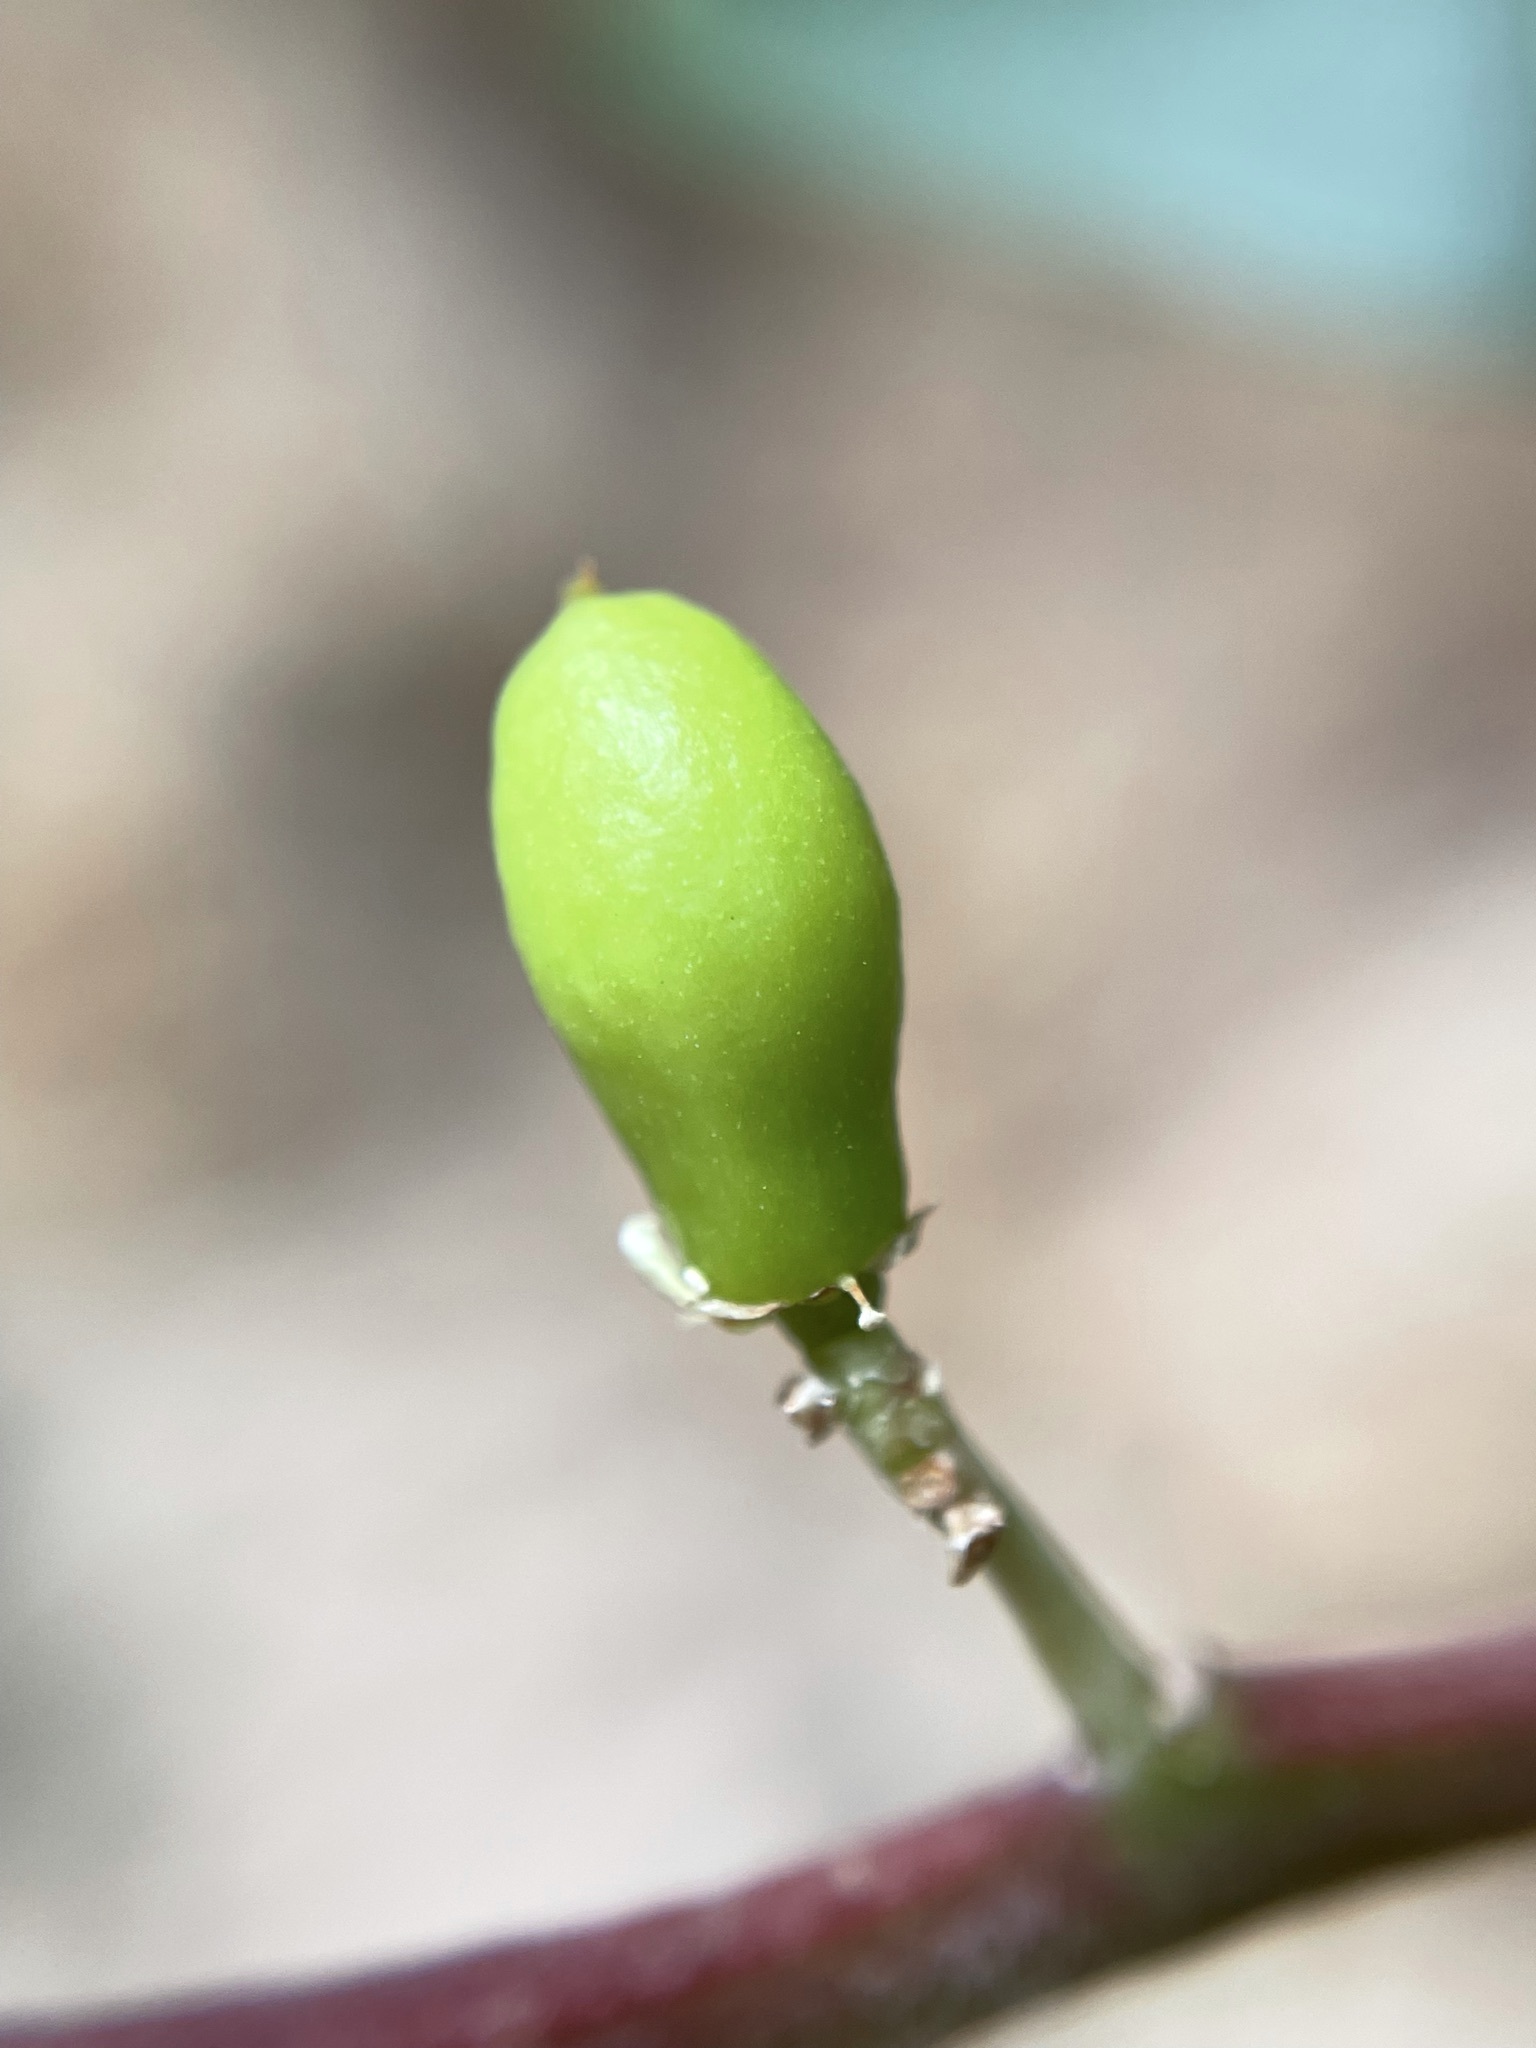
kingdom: Plantae
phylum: Tracheophyta
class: Magnoliopsida
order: Celastrales
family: Celastraceae
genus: Gymnosporia
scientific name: Gymnosporia laurina
